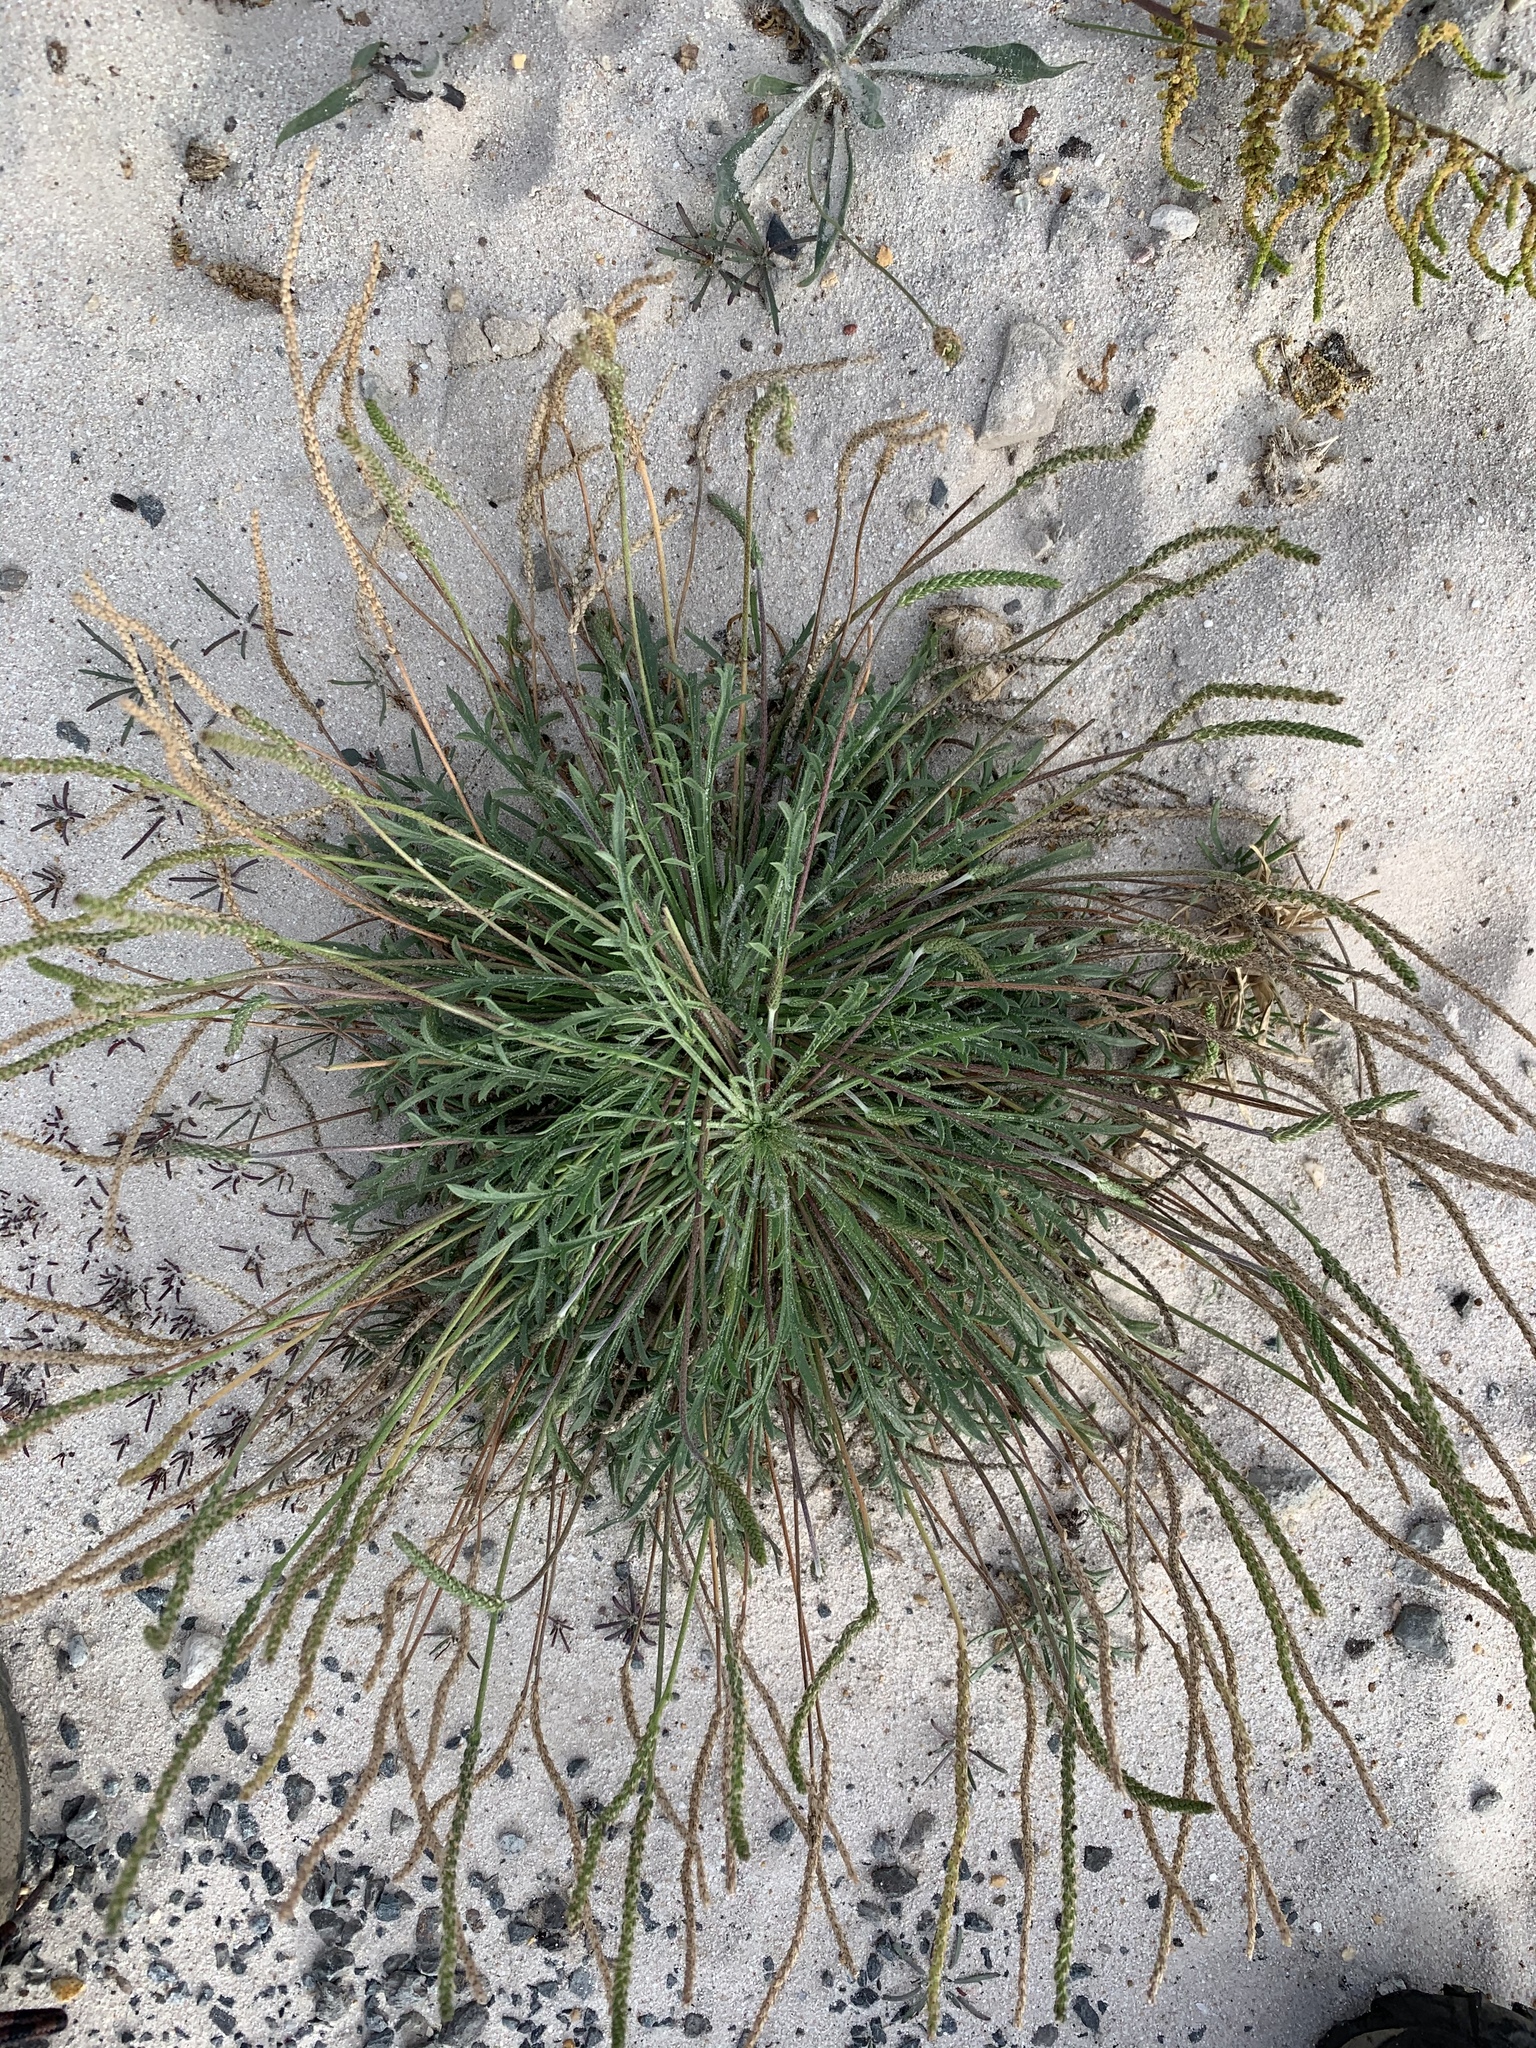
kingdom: Plantae
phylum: Tracheophyta
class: Magnoliopsida
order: Lamiales
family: Plantaginaceae
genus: Plantago
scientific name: Plantago coronopus
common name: Buck's-horn plantain
